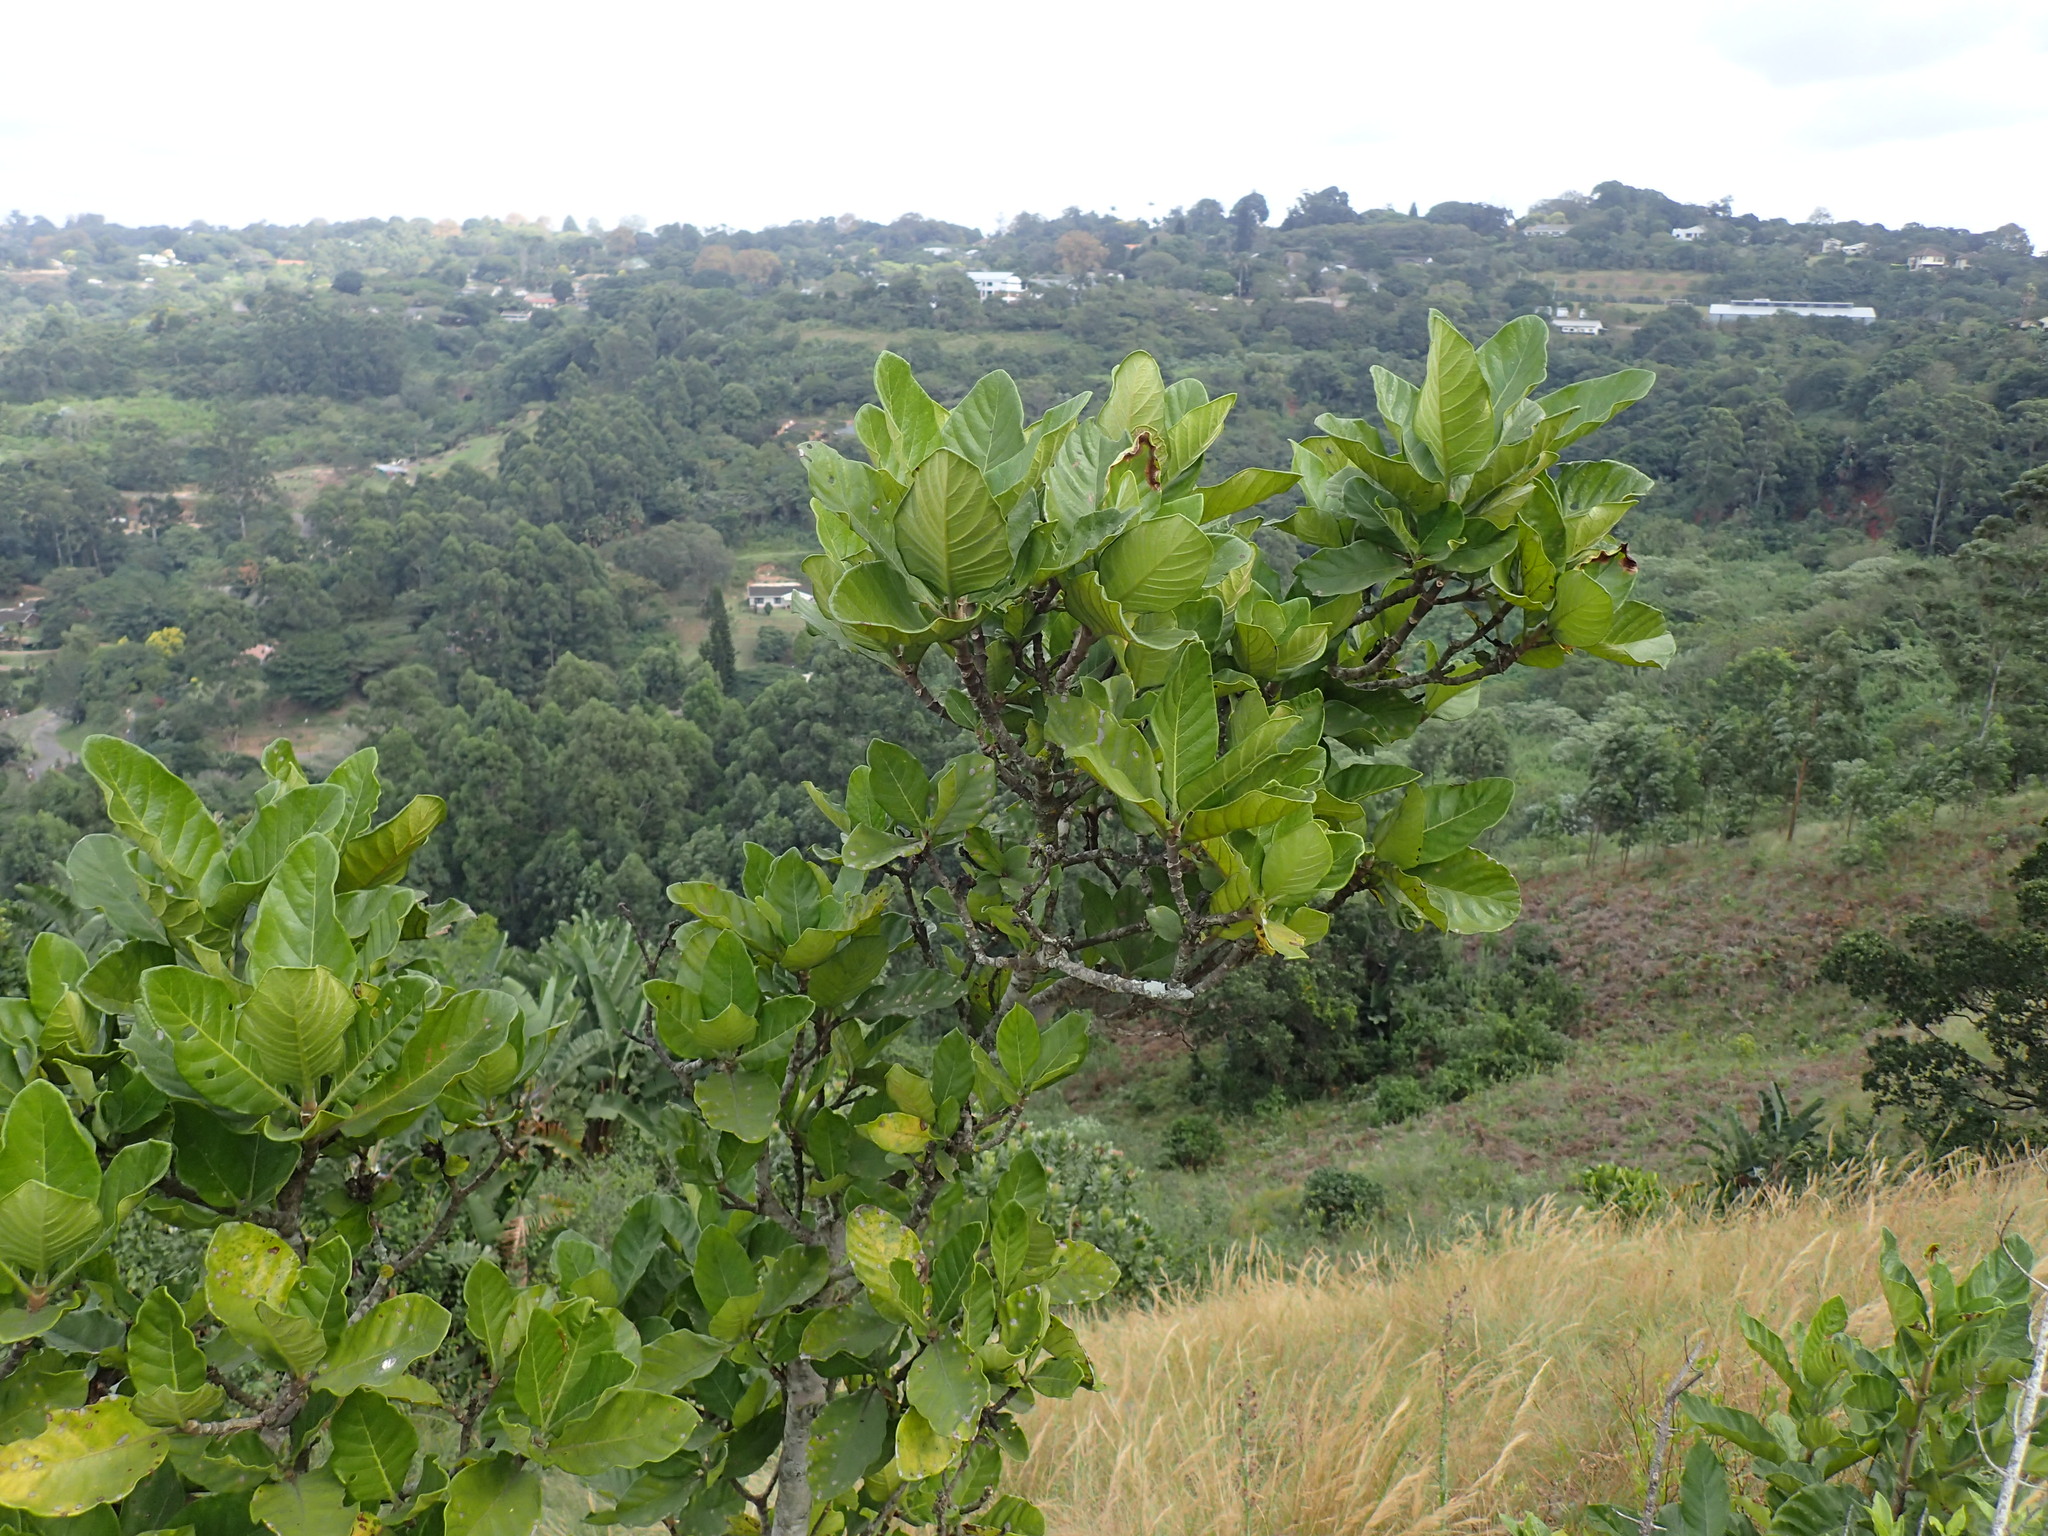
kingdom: Plantae
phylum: Tracheophyta
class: Magnoliopsida
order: Gentianales
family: Rubiaceae
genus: Burchellia
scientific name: Burchellia bubalina
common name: Wild pomegranate
